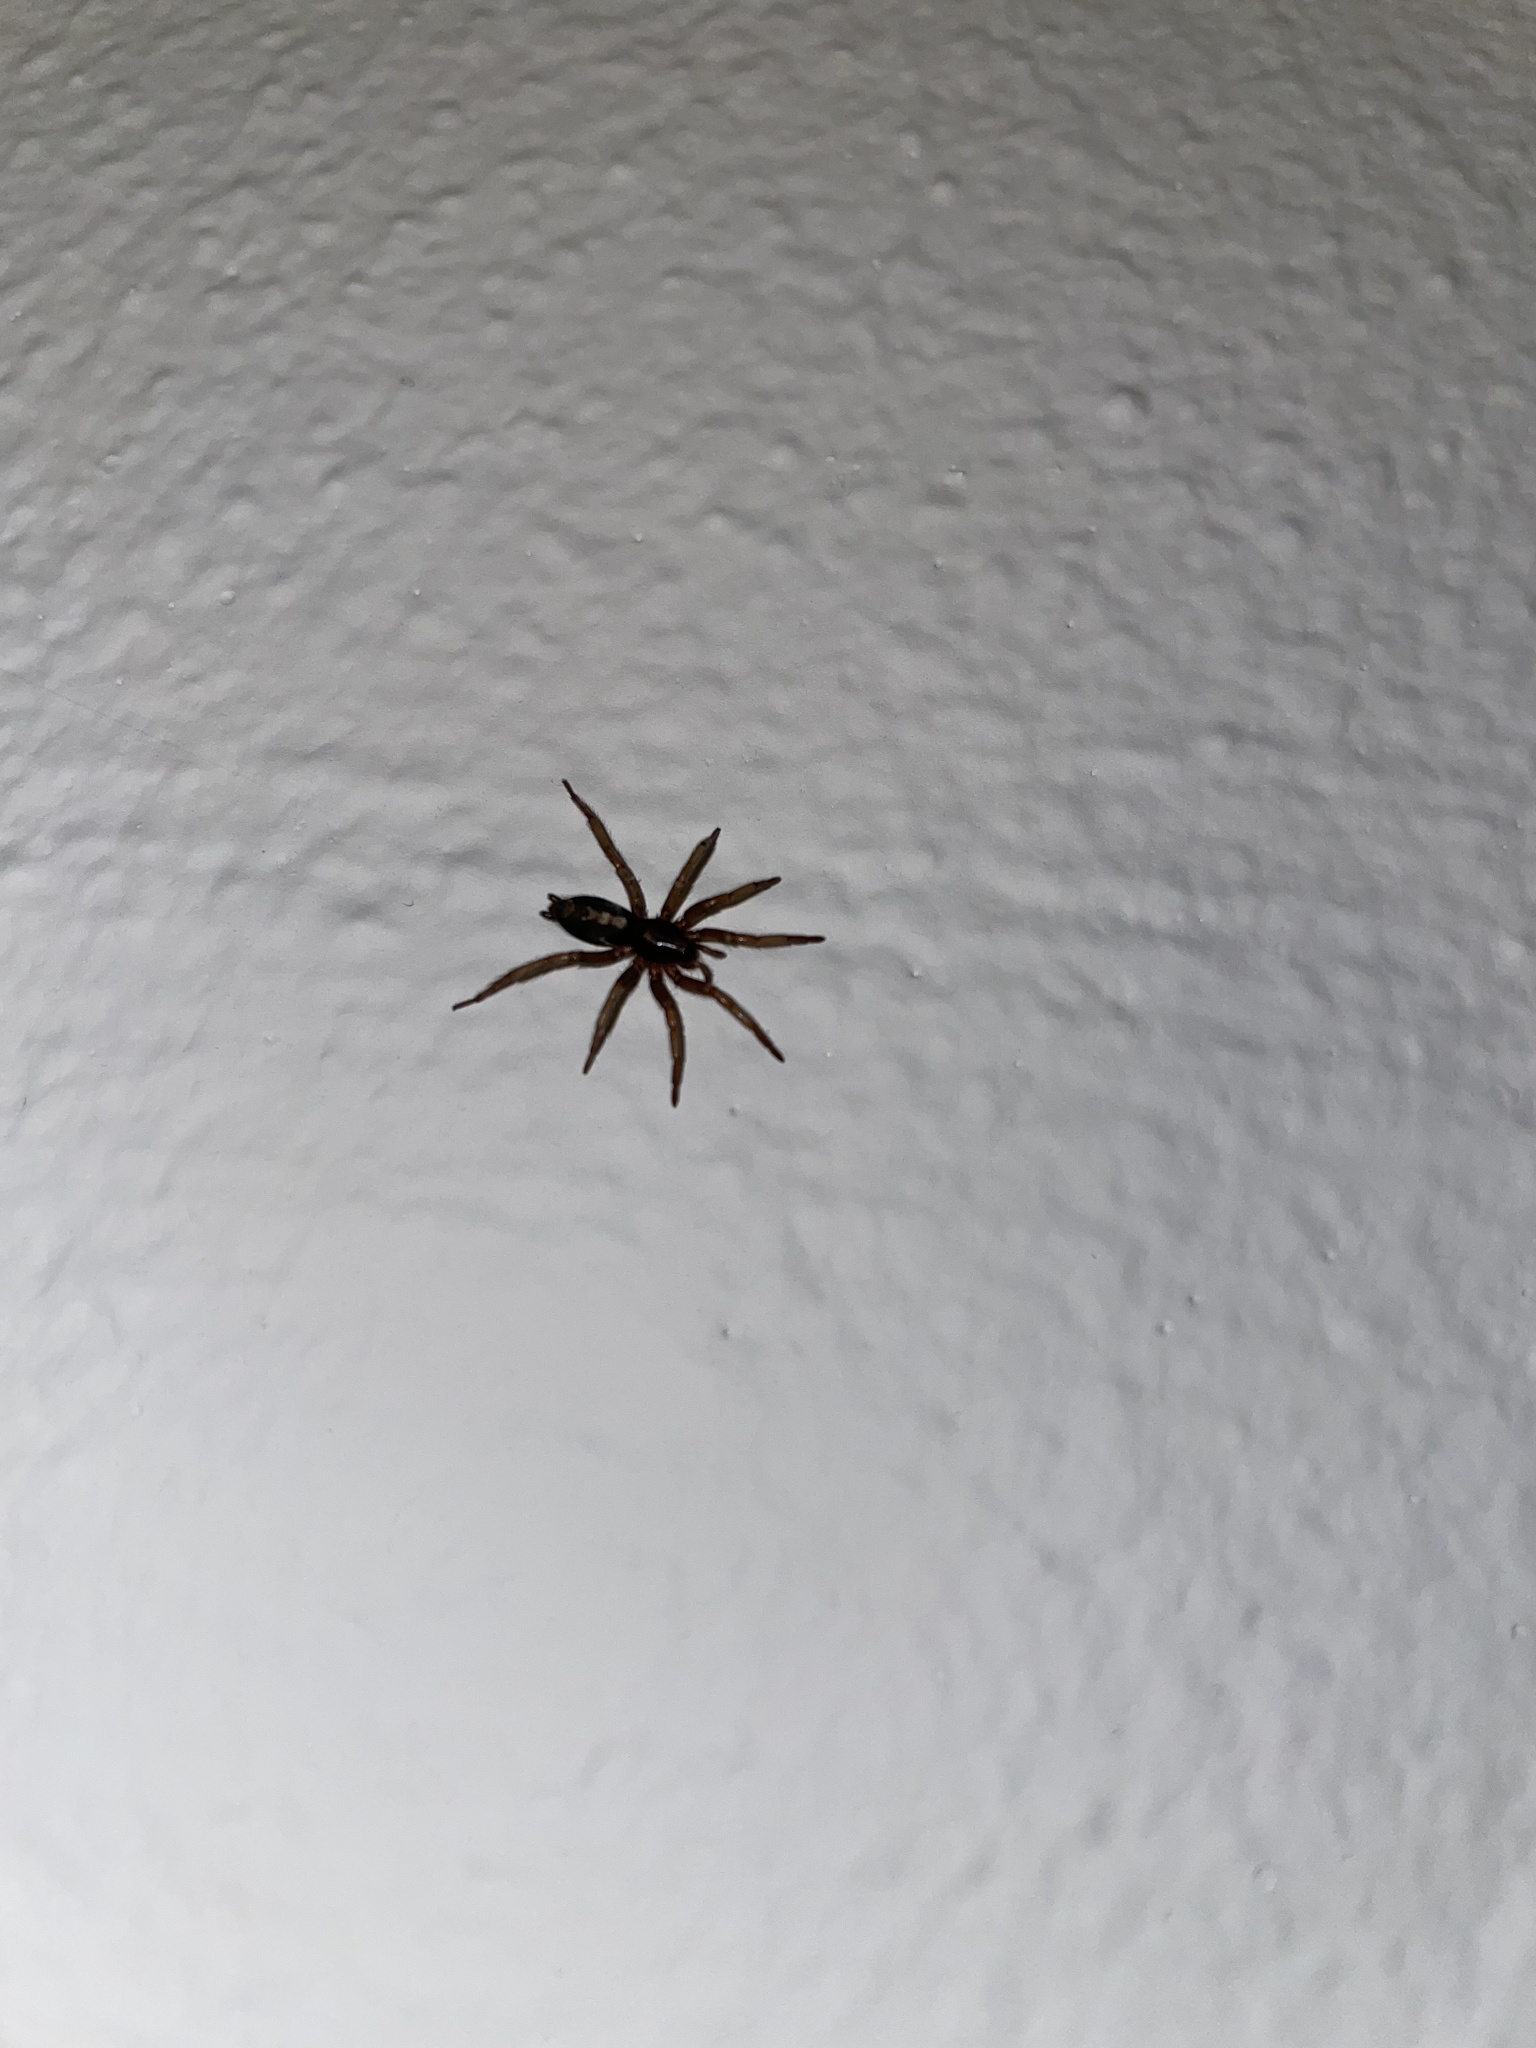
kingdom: Animalia
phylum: Arthropoda
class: Arachnida
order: Araneae
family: Gnaphosidae
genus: Herpyllus
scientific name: Herpyllus ecclesiasticus
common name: Eastern parson spider
